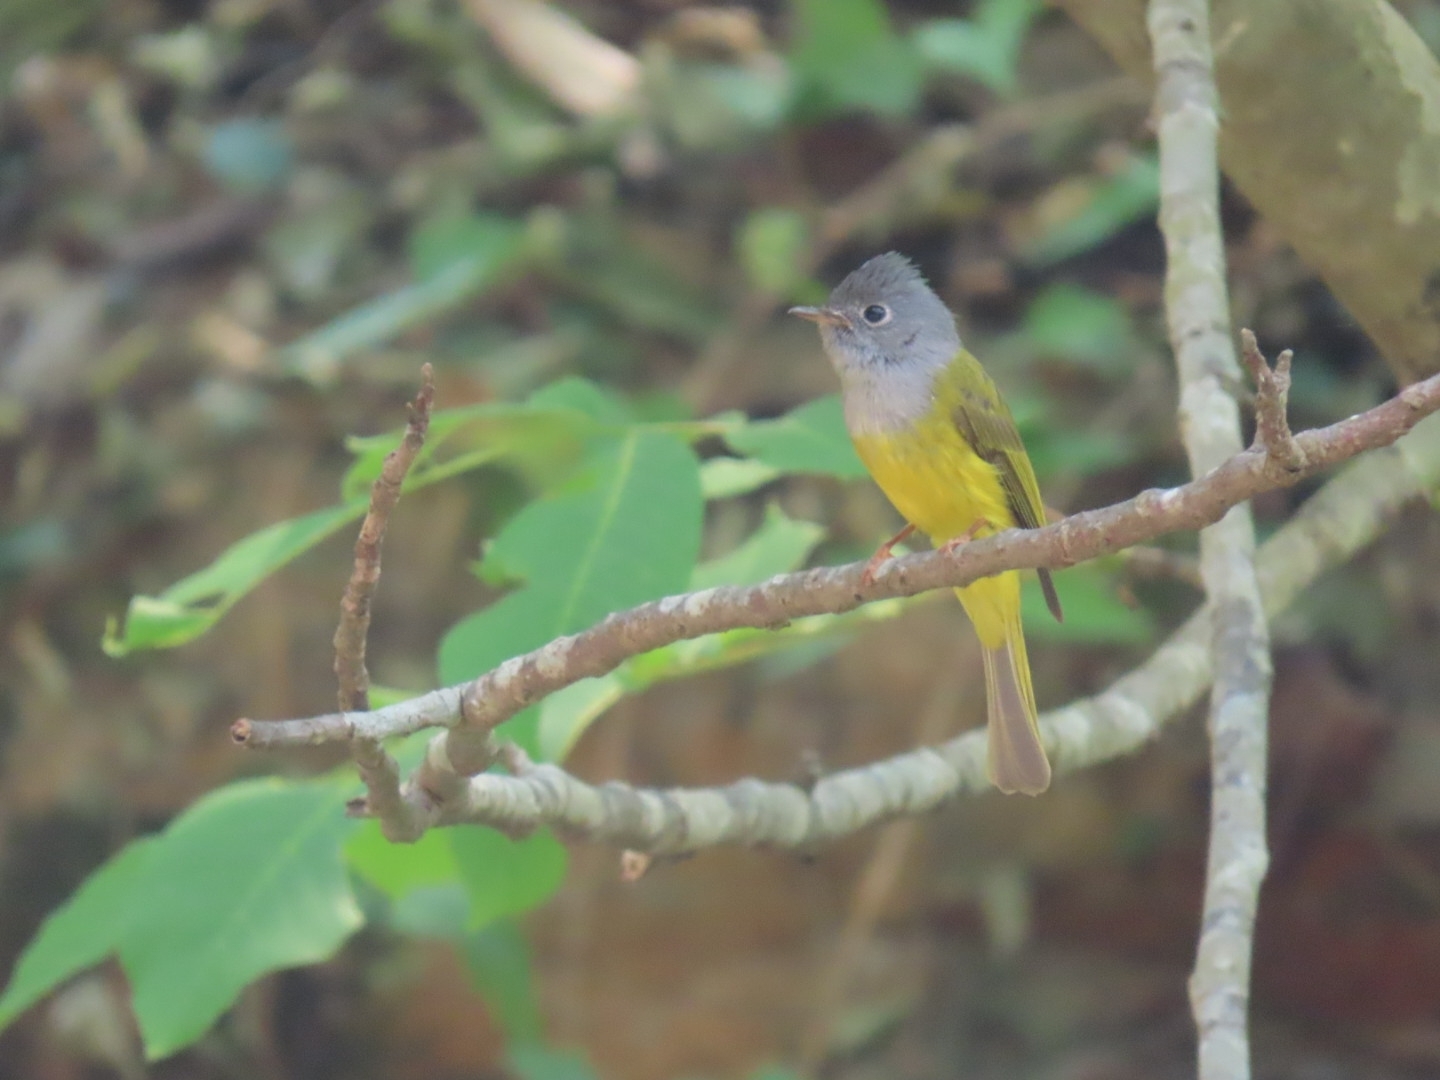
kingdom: Animalia
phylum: Chordata
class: Aves
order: Passeriformes
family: Stenostiridae
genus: Culicicapa
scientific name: Culicicapa ceylonensis
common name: Grey-headed canary-flycatcher
